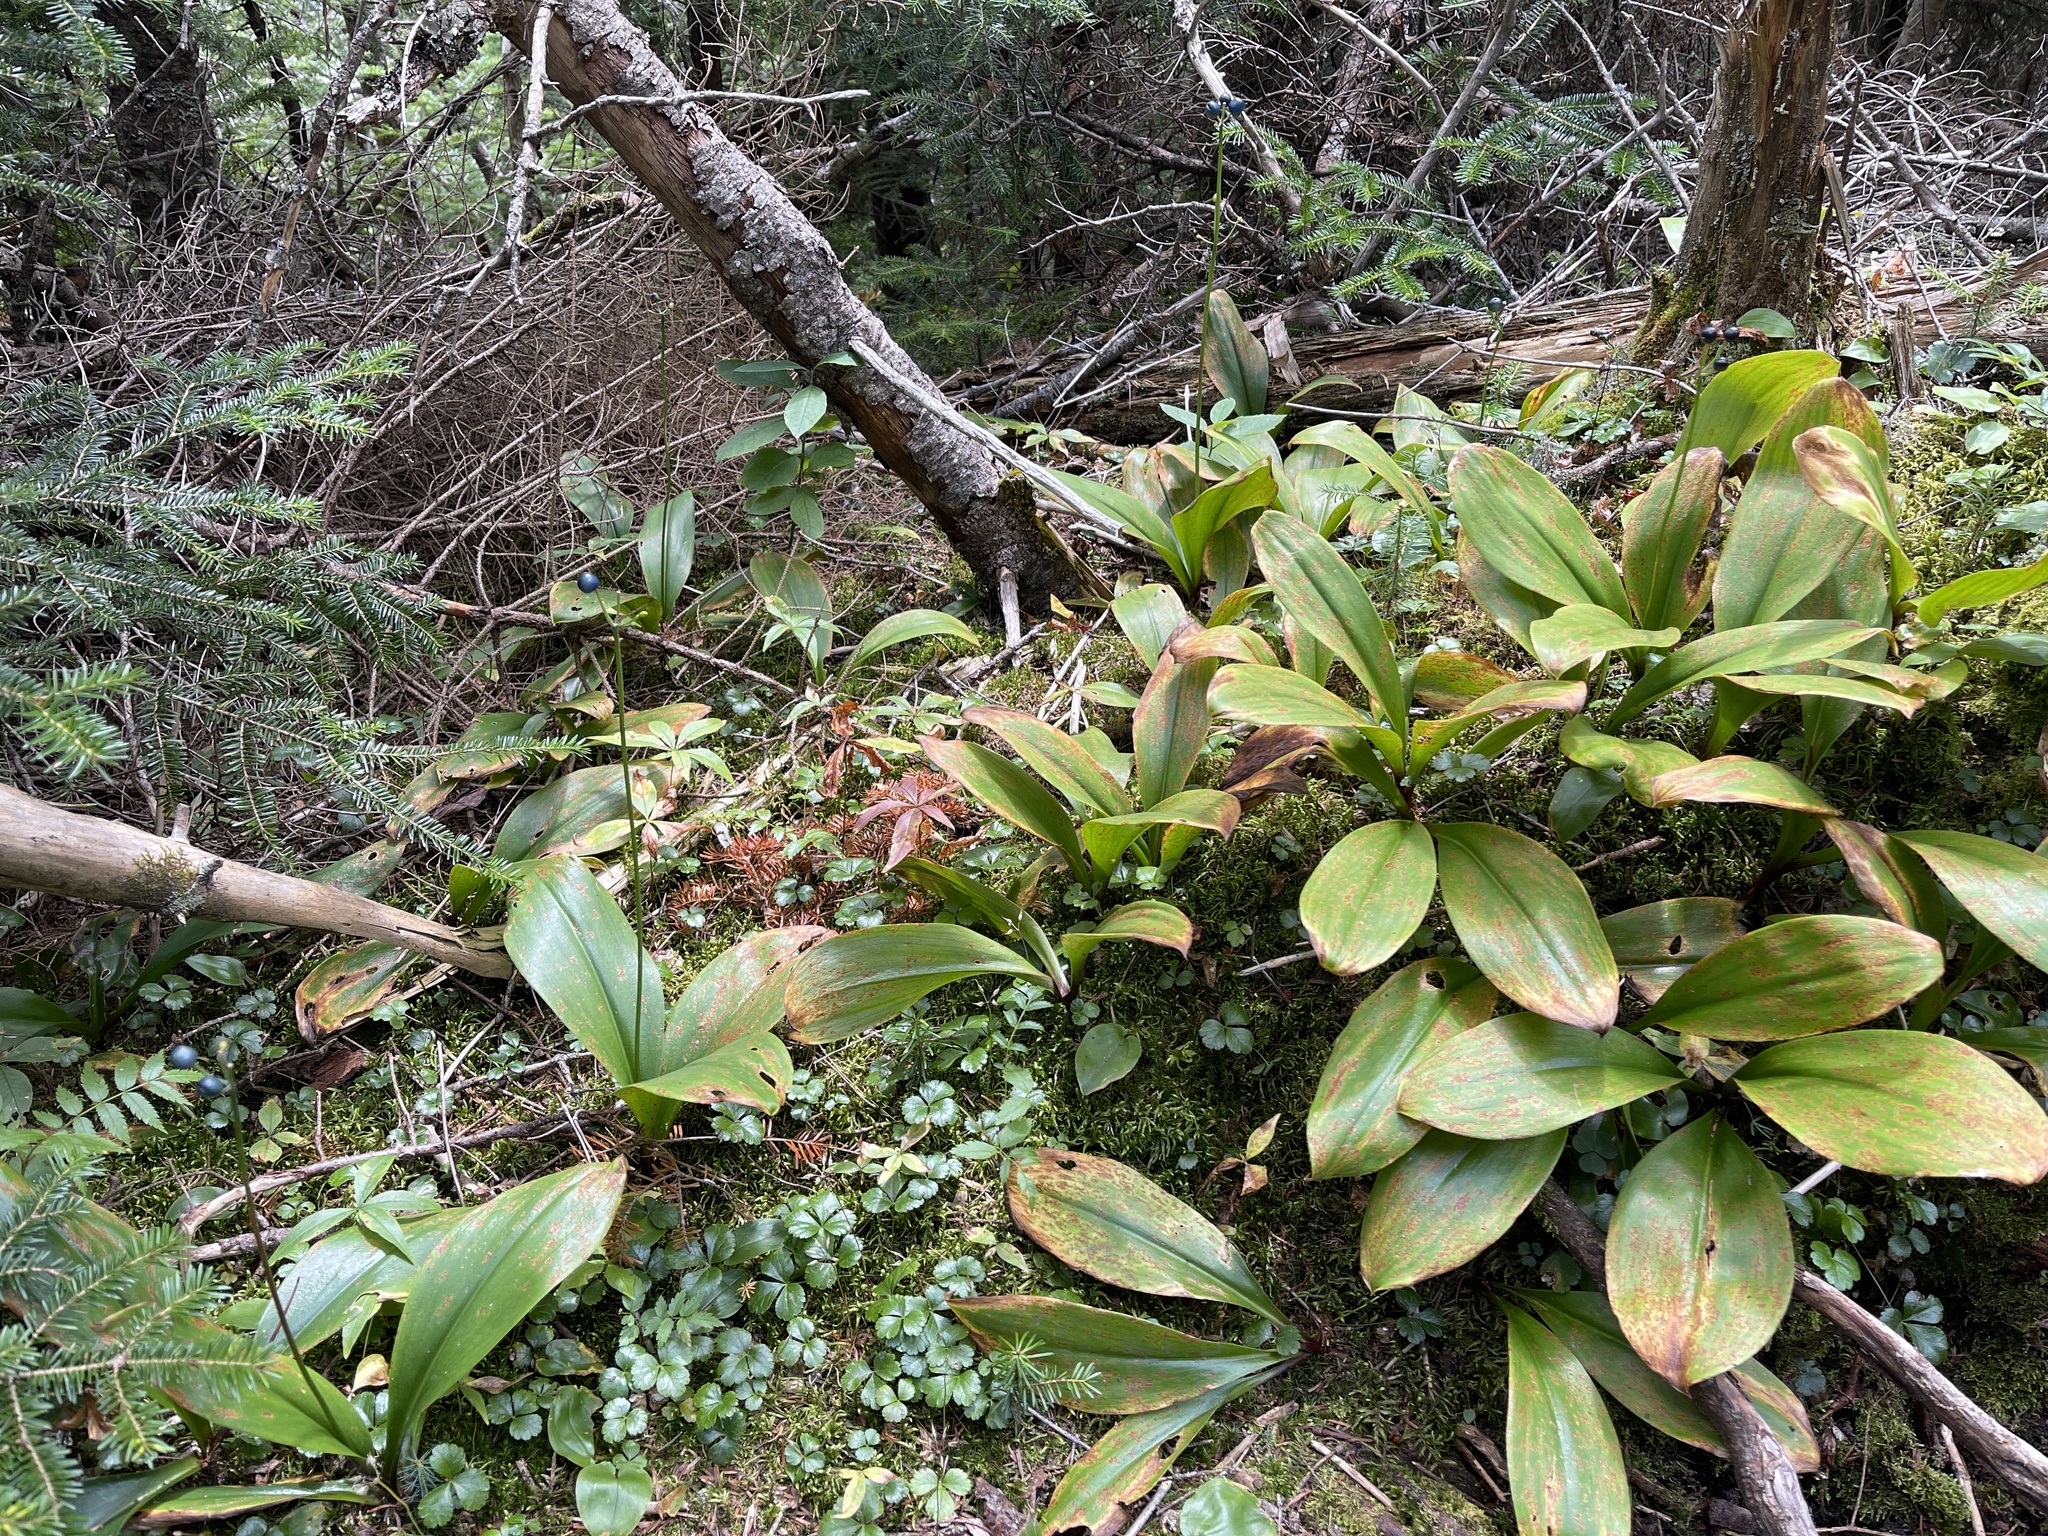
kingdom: Plantae
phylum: Tracheophyta
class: Liliopsida
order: Liliales
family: Liliaceae
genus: Clintonia
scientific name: Clintonia borealis
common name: Yellow clintonia
